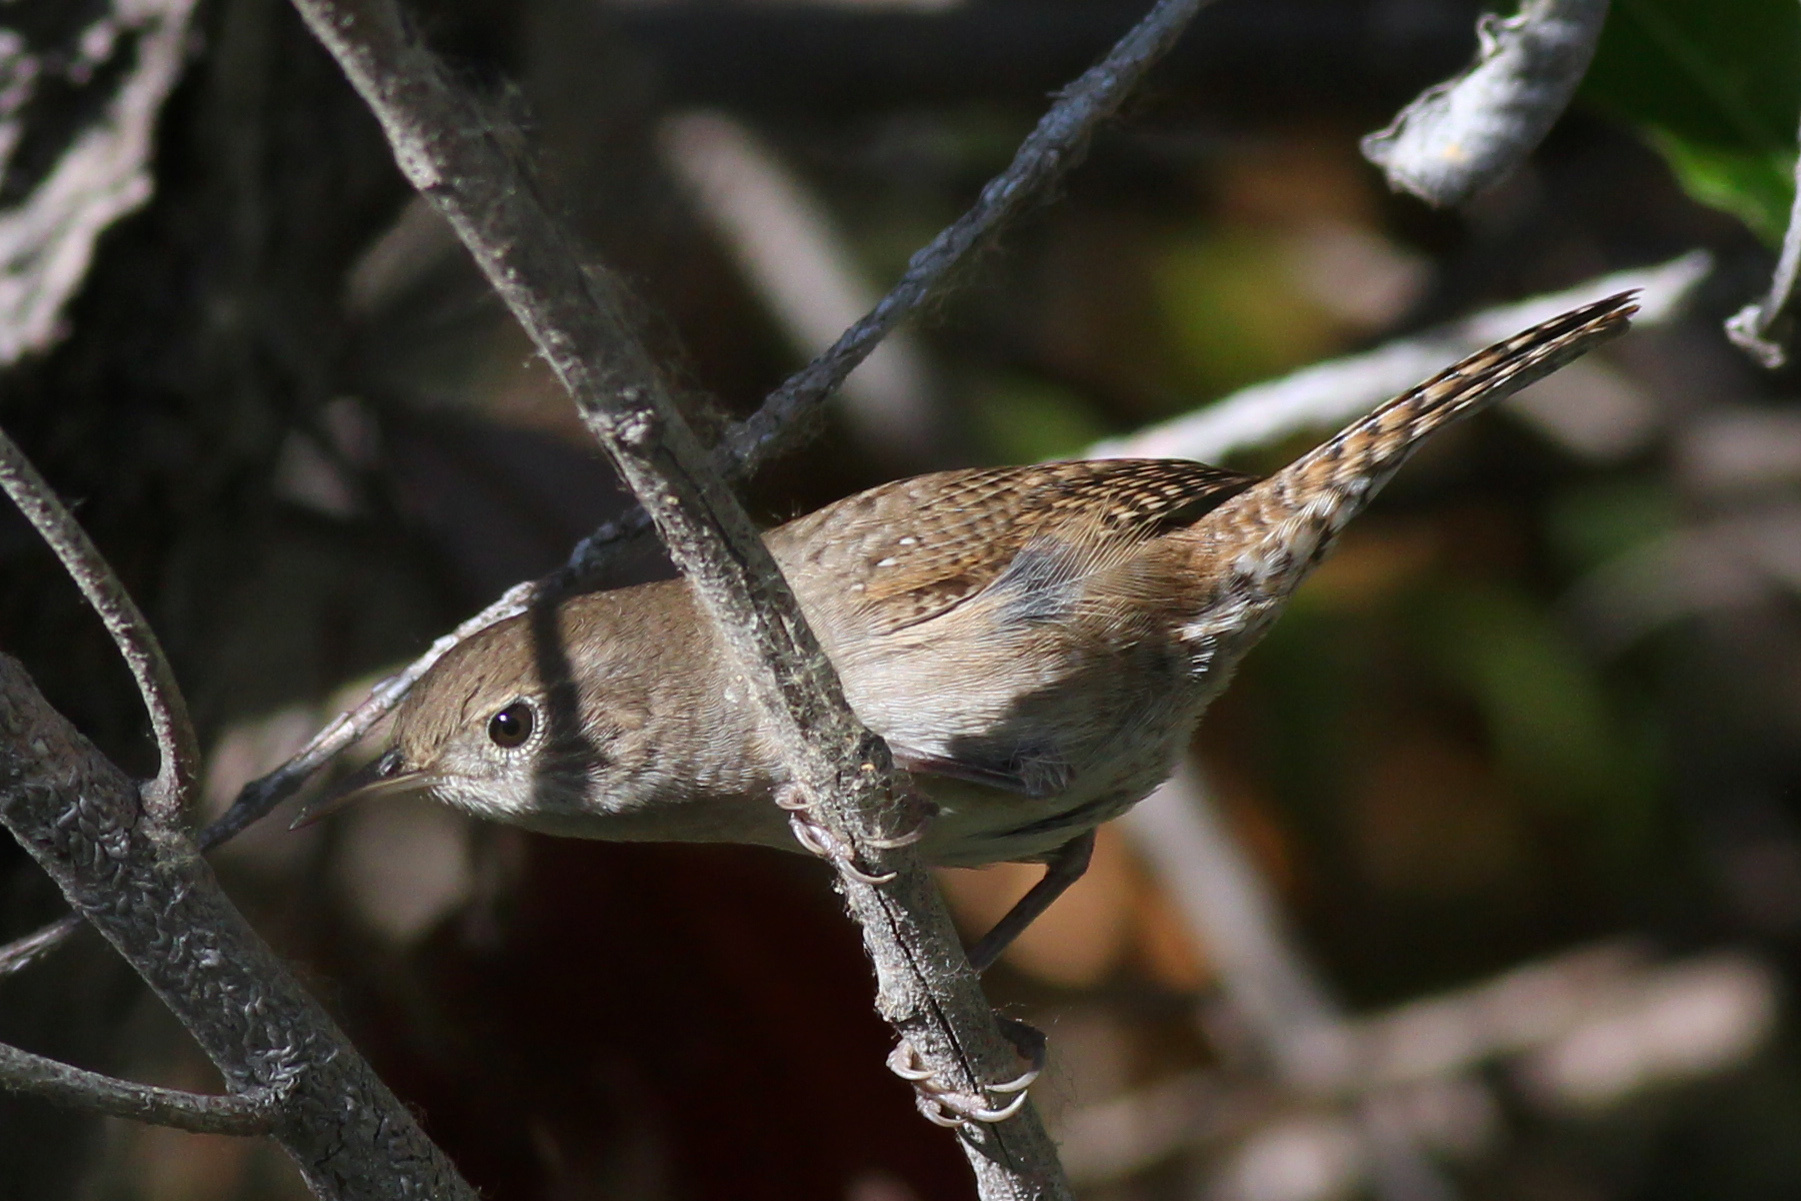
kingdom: Animalia
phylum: Chordata
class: Aves
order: Passeriformes
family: Troglodytidae
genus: Troglodytes
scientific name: Troglodytes aedon
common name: House wren
